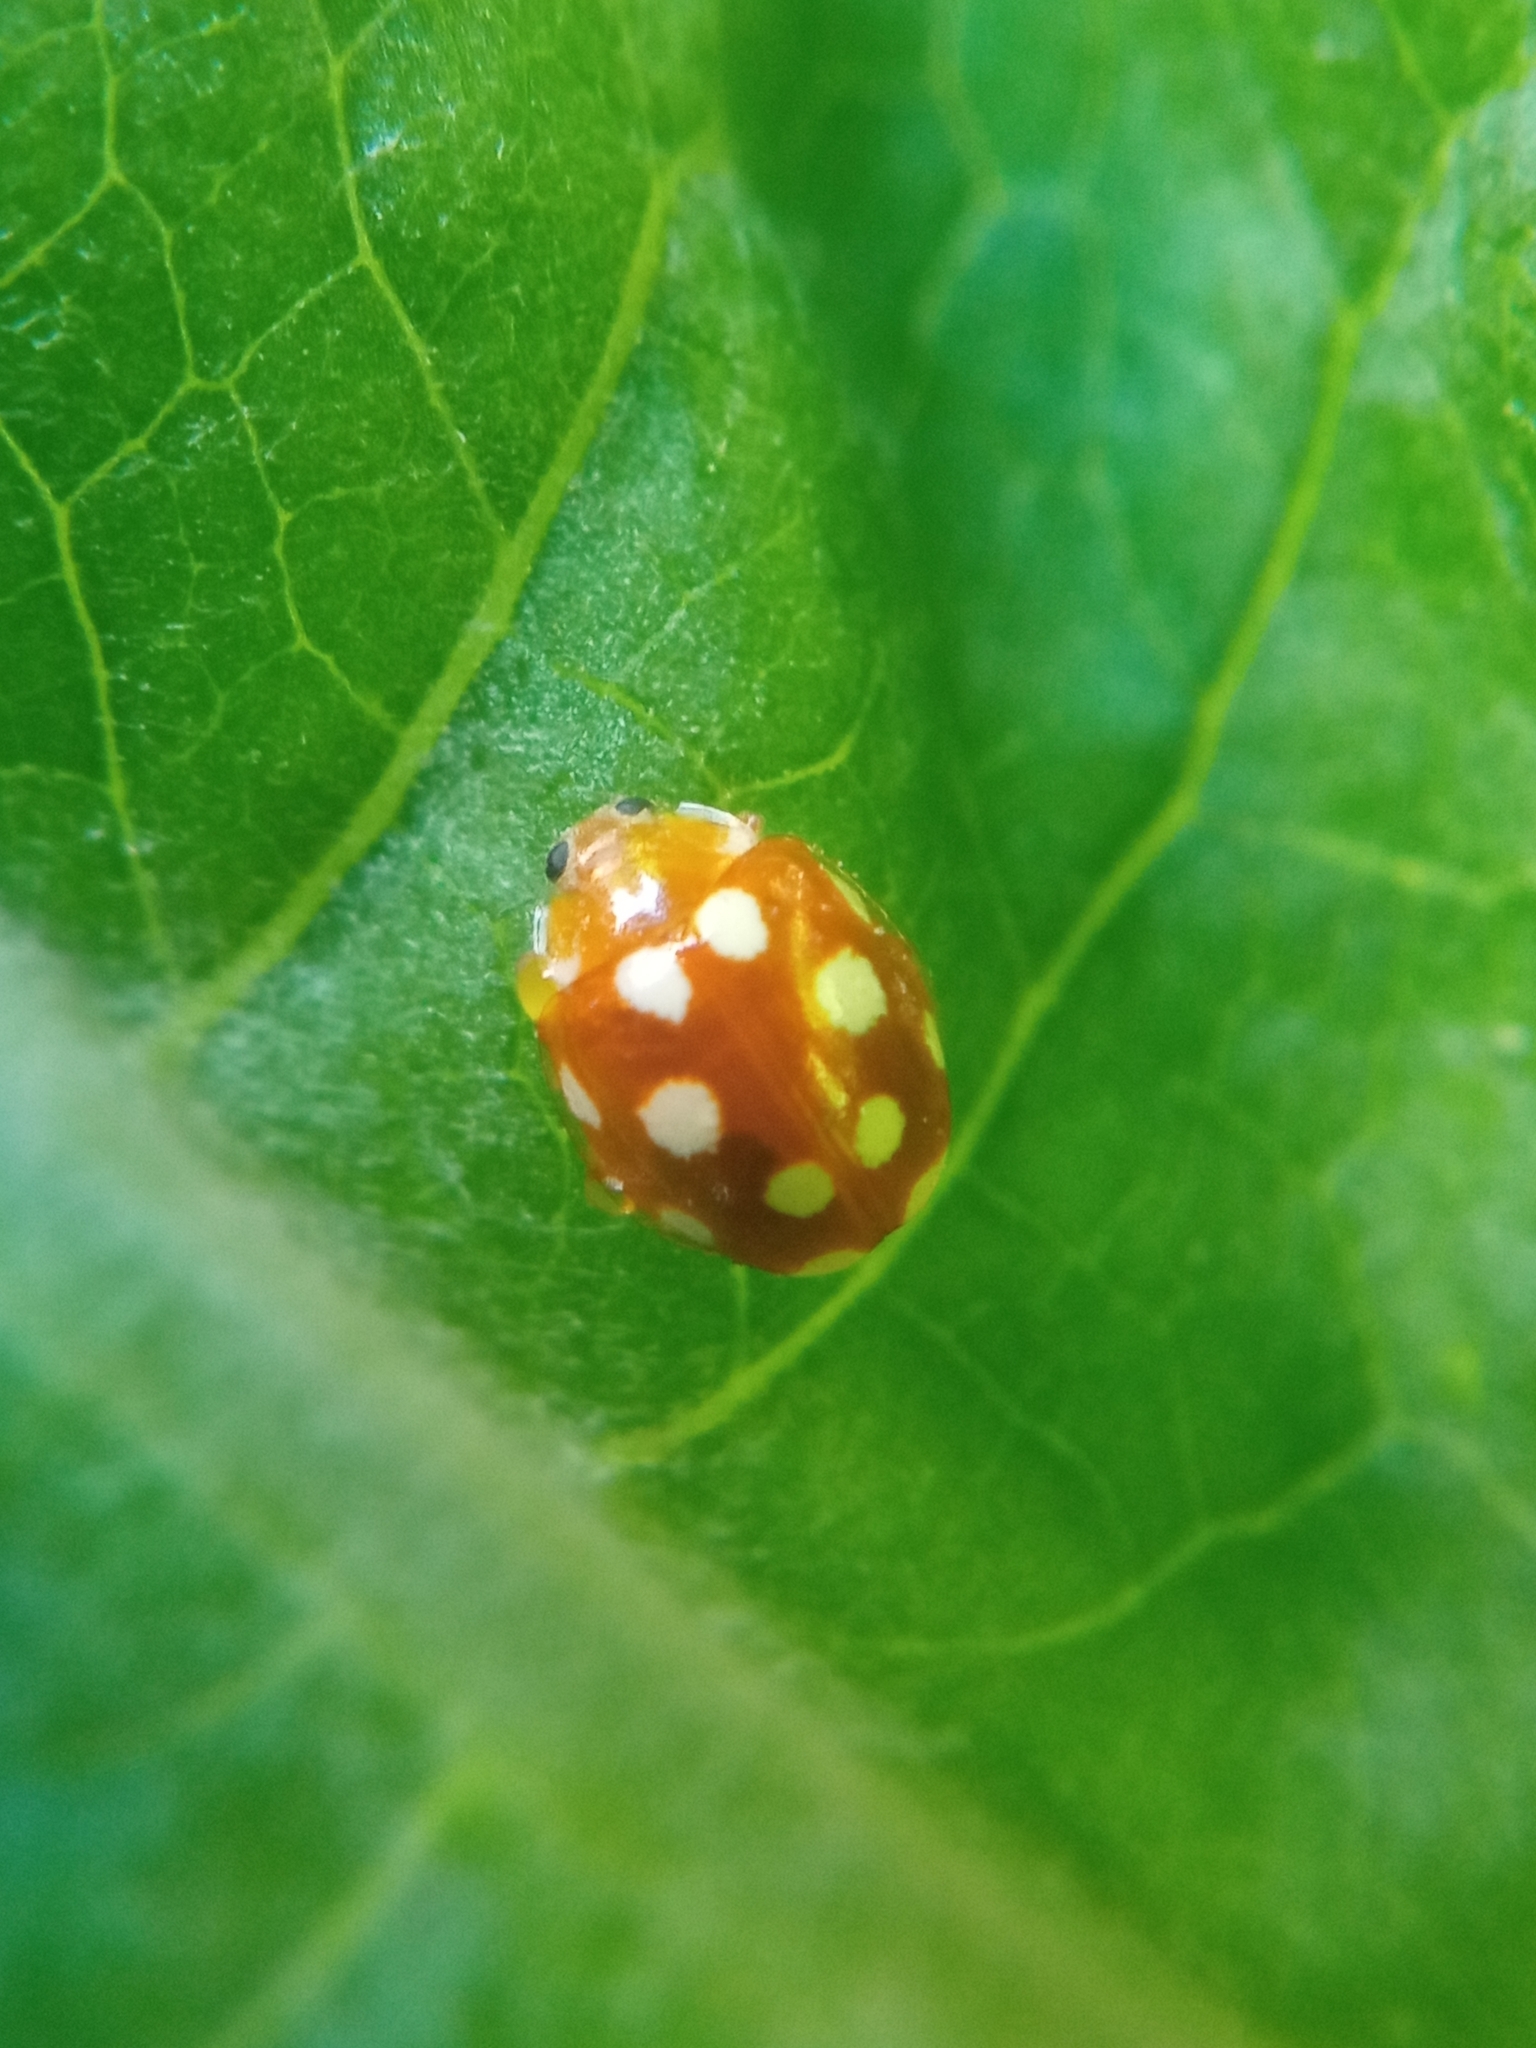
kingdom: Animalia
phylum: Arthropoda
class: Insecta
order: Coleoptera
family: Coccinellidae
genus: Vibidia
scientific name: Vibidia duodecimguttata
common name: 12-spot ladybird
